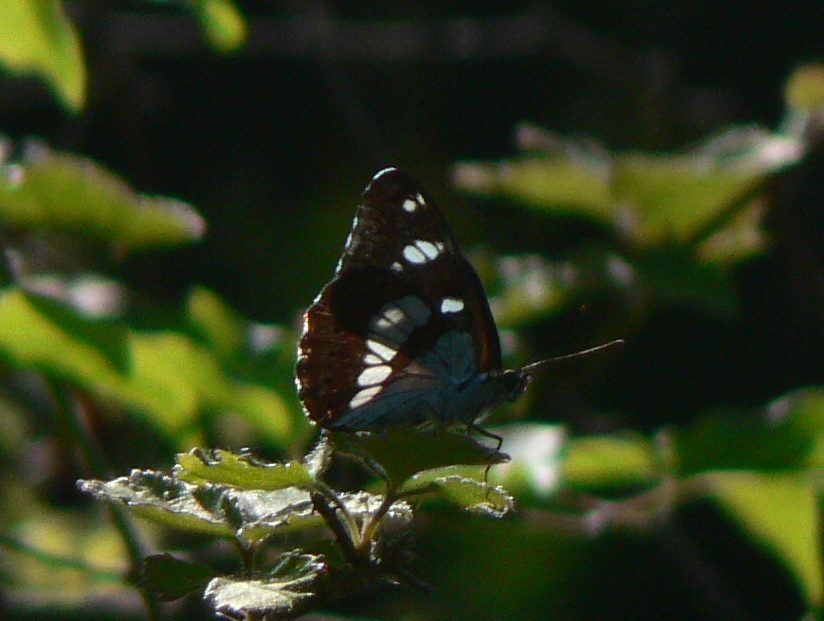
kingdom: Animalia
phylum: Arthropoda
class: Insecta
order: Lepidoptera
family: Nymphalidae
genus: Limenitis
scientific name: Limenitis reducta
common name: Southern white admiral
